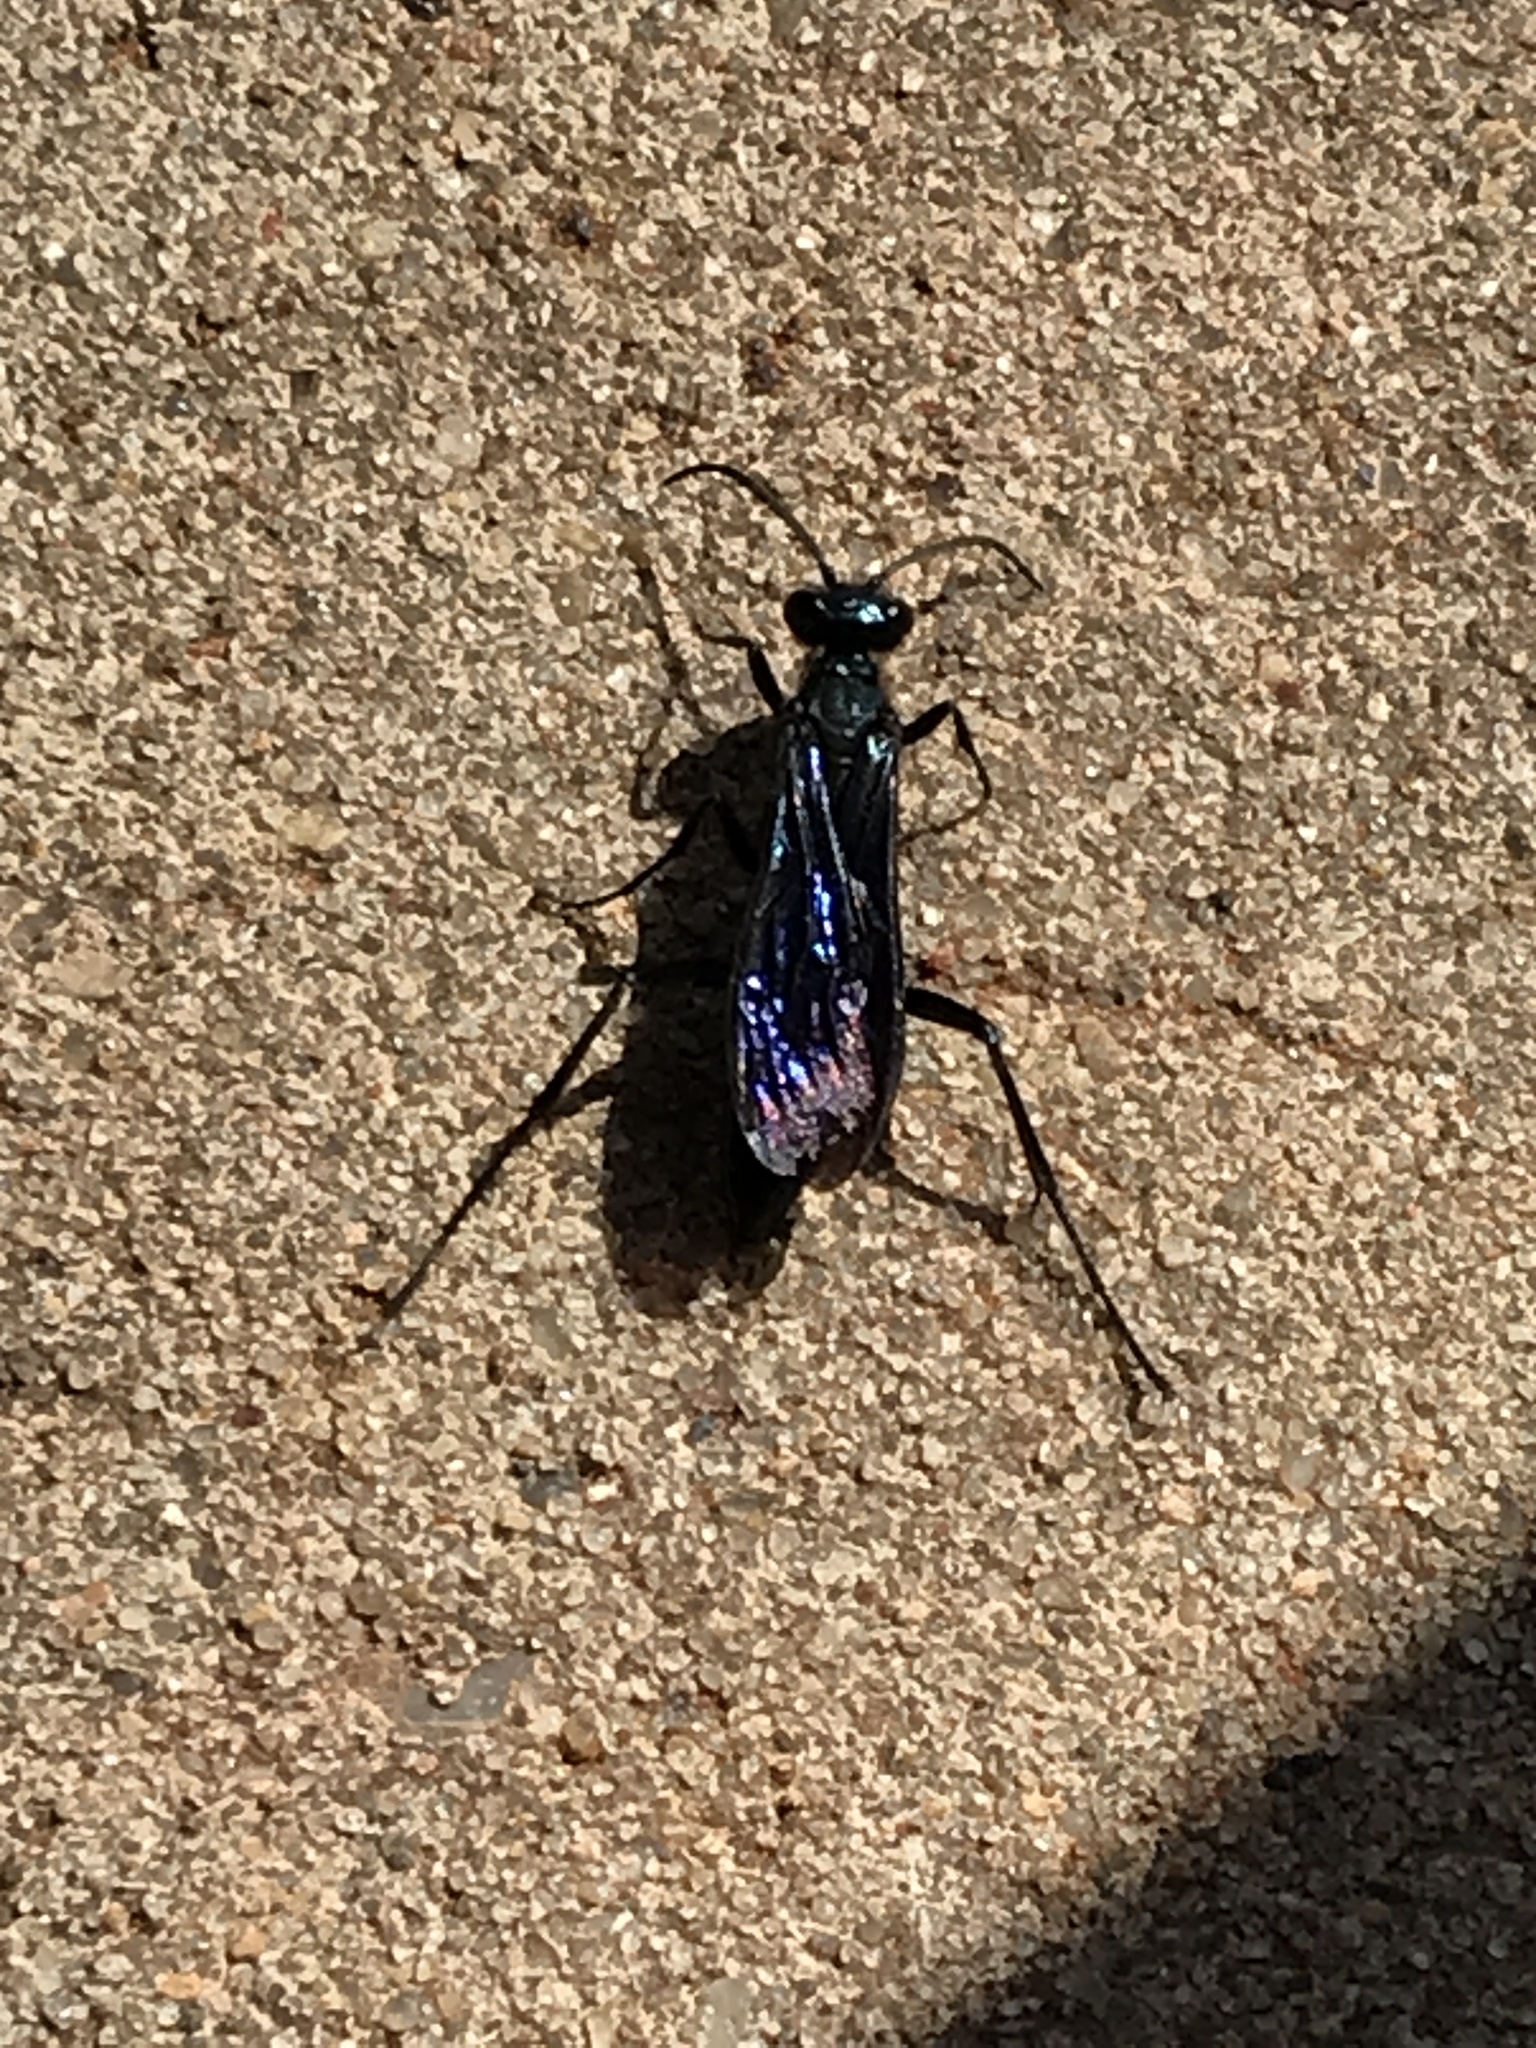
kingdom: Animalia
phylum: Arthropoda
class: Insecta
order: Hymenoptera
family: Sphecidae
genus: Chalybion
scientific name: Chalybion californicum
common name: Mud dauber
